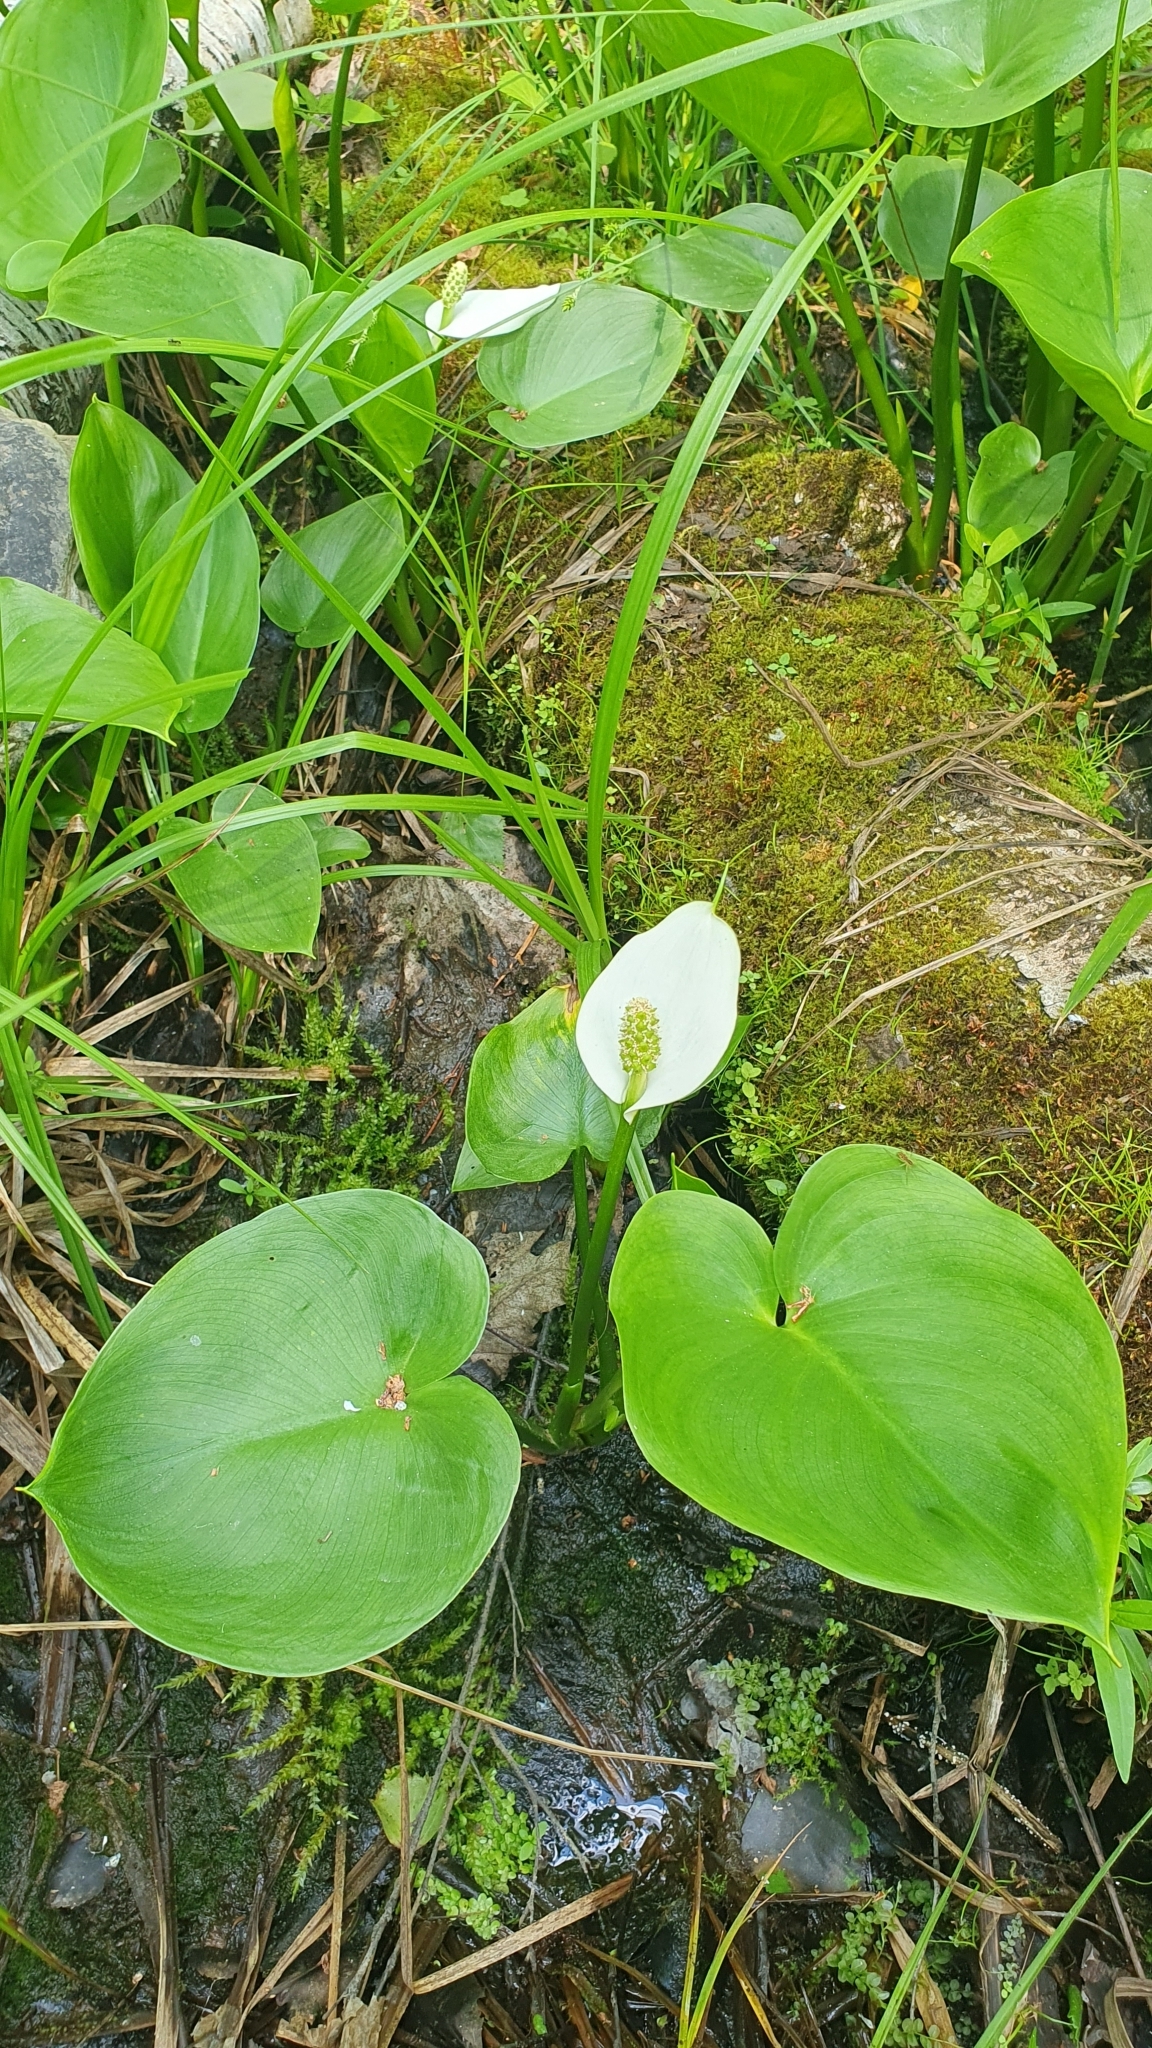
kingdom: Plantae
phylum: Tracheophyta
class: Liliopsida
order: Alismatales
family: Araceae
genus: Calla
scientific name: Calla palustris
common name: Bog arum
